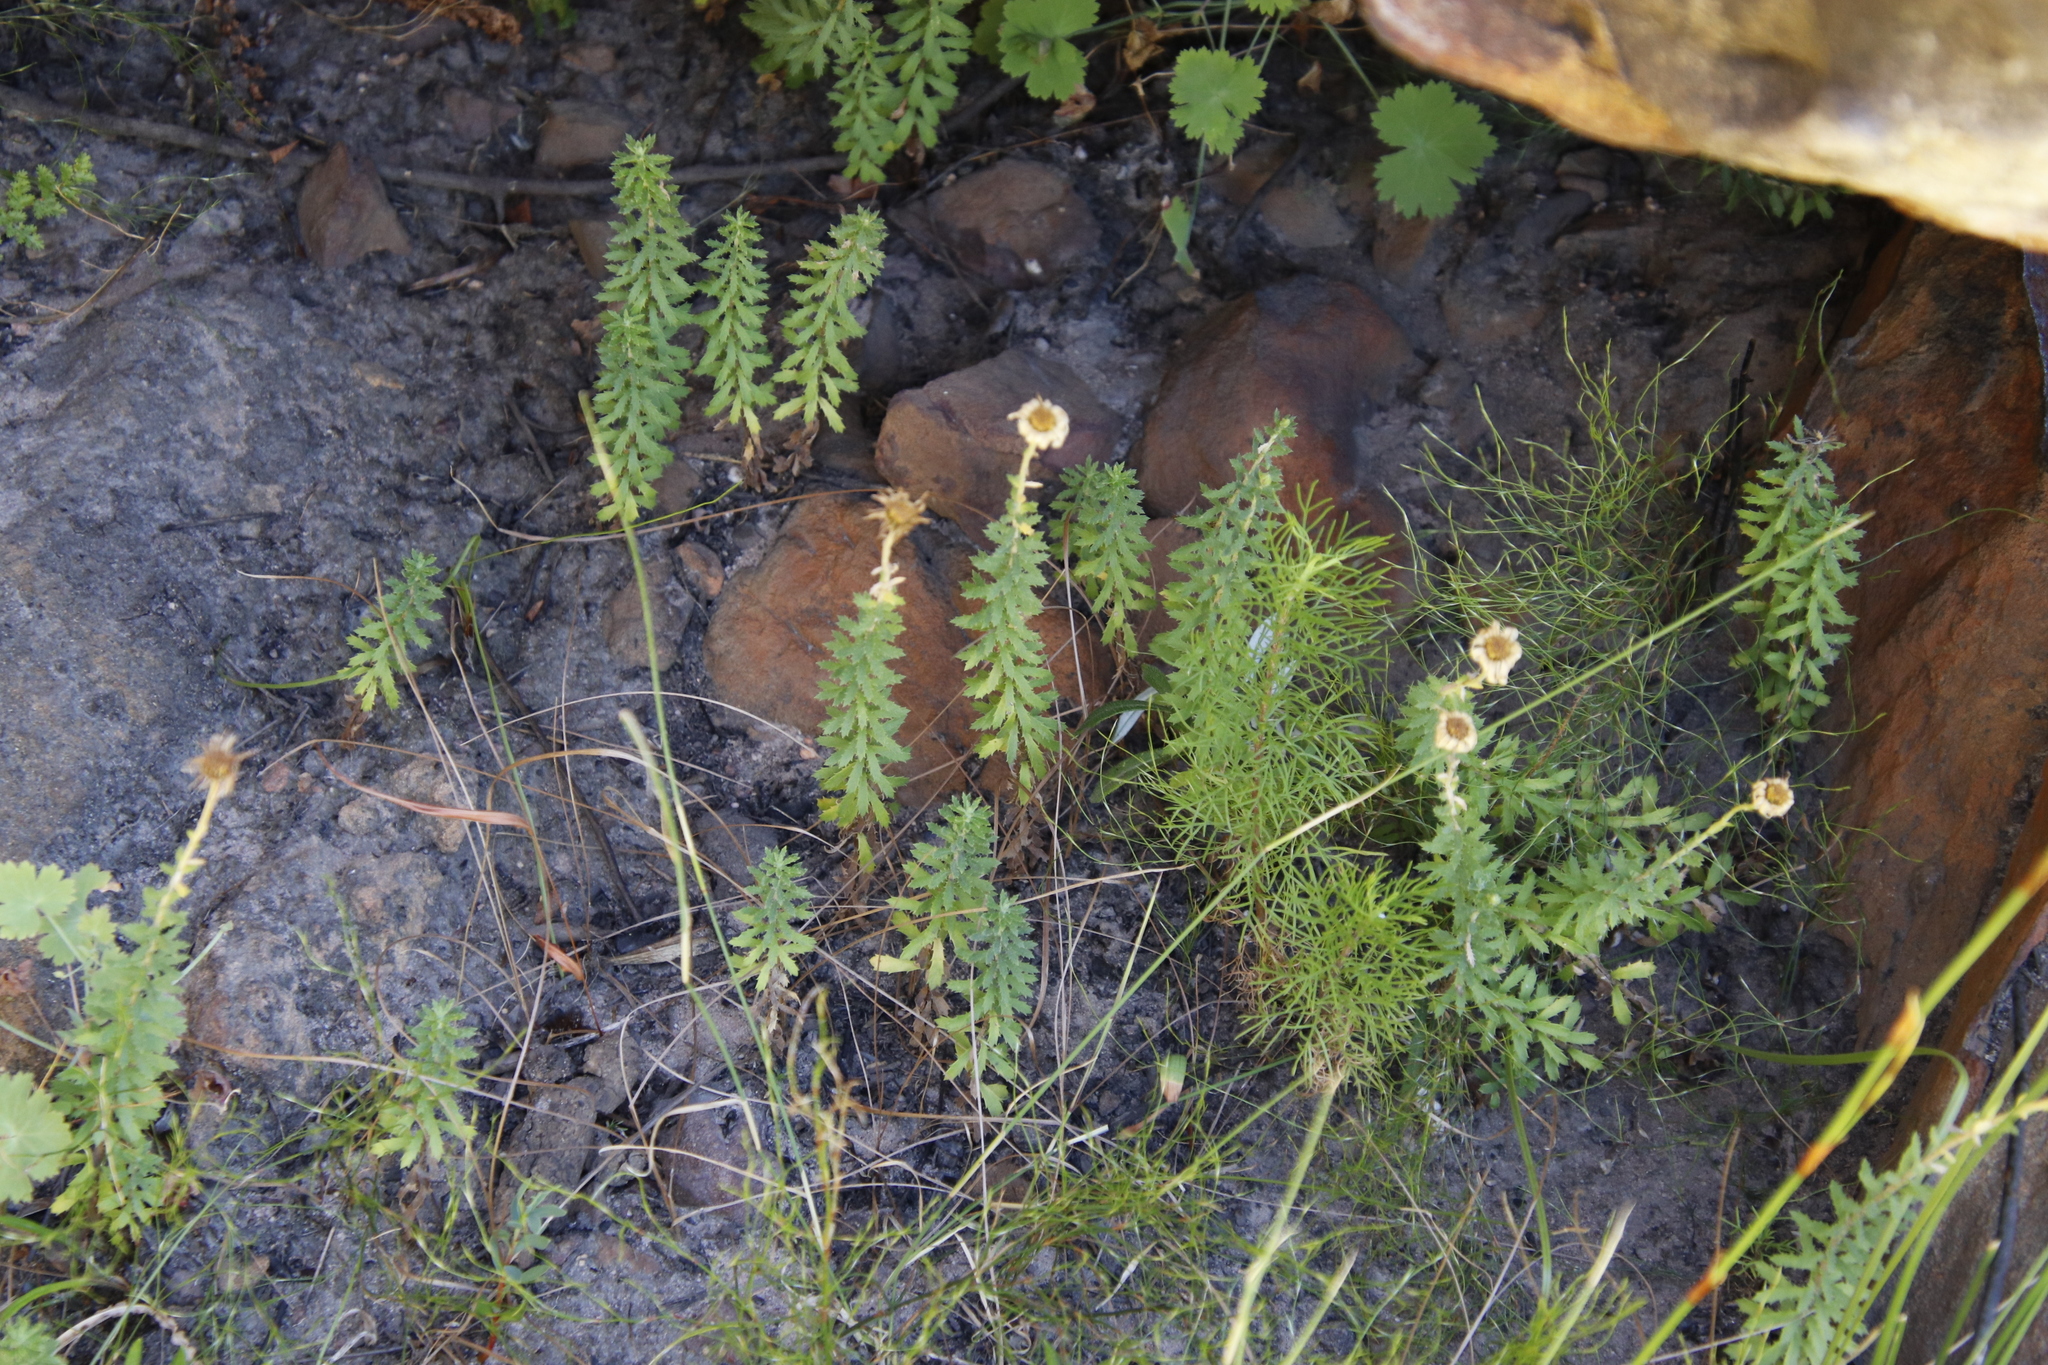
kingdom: Plantae
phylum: Tracheophyta
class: Magnoliopsida
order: Asterales
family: Asteraceae
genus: Osmitopsis
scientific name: Osmitopsis afra
